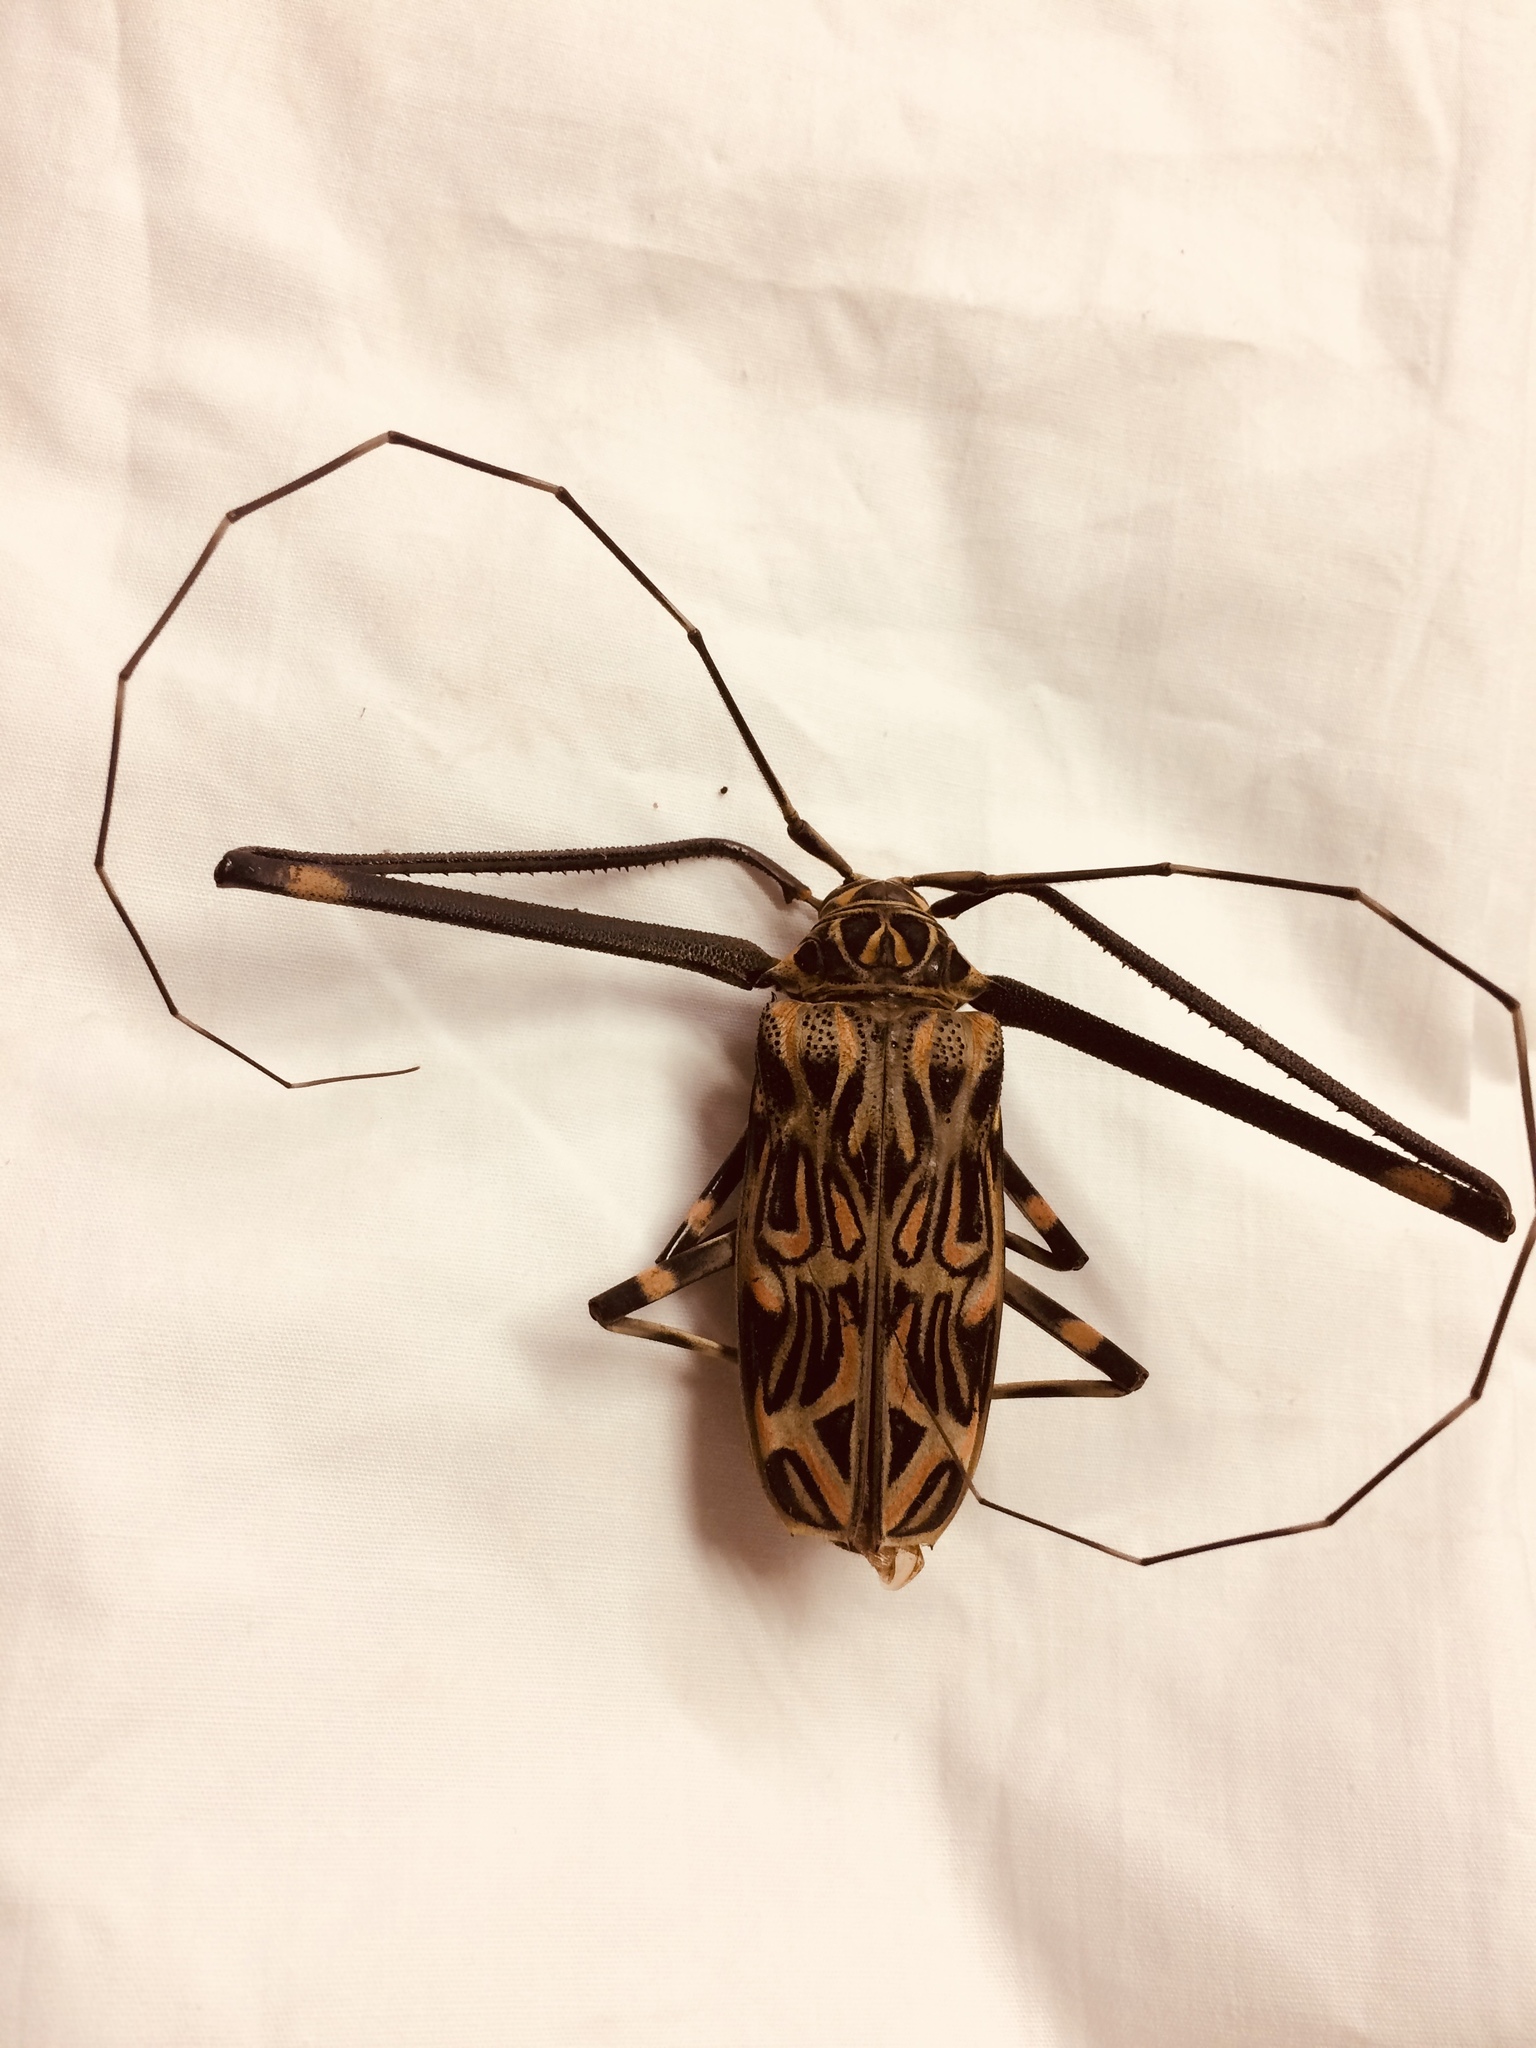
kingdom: Animalia
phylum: Arthropoda
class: Insecta
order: Coleoptera
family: Cerambycidae
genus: Acrocinus
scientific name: Acrocinus longimanus
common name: Arlequin
